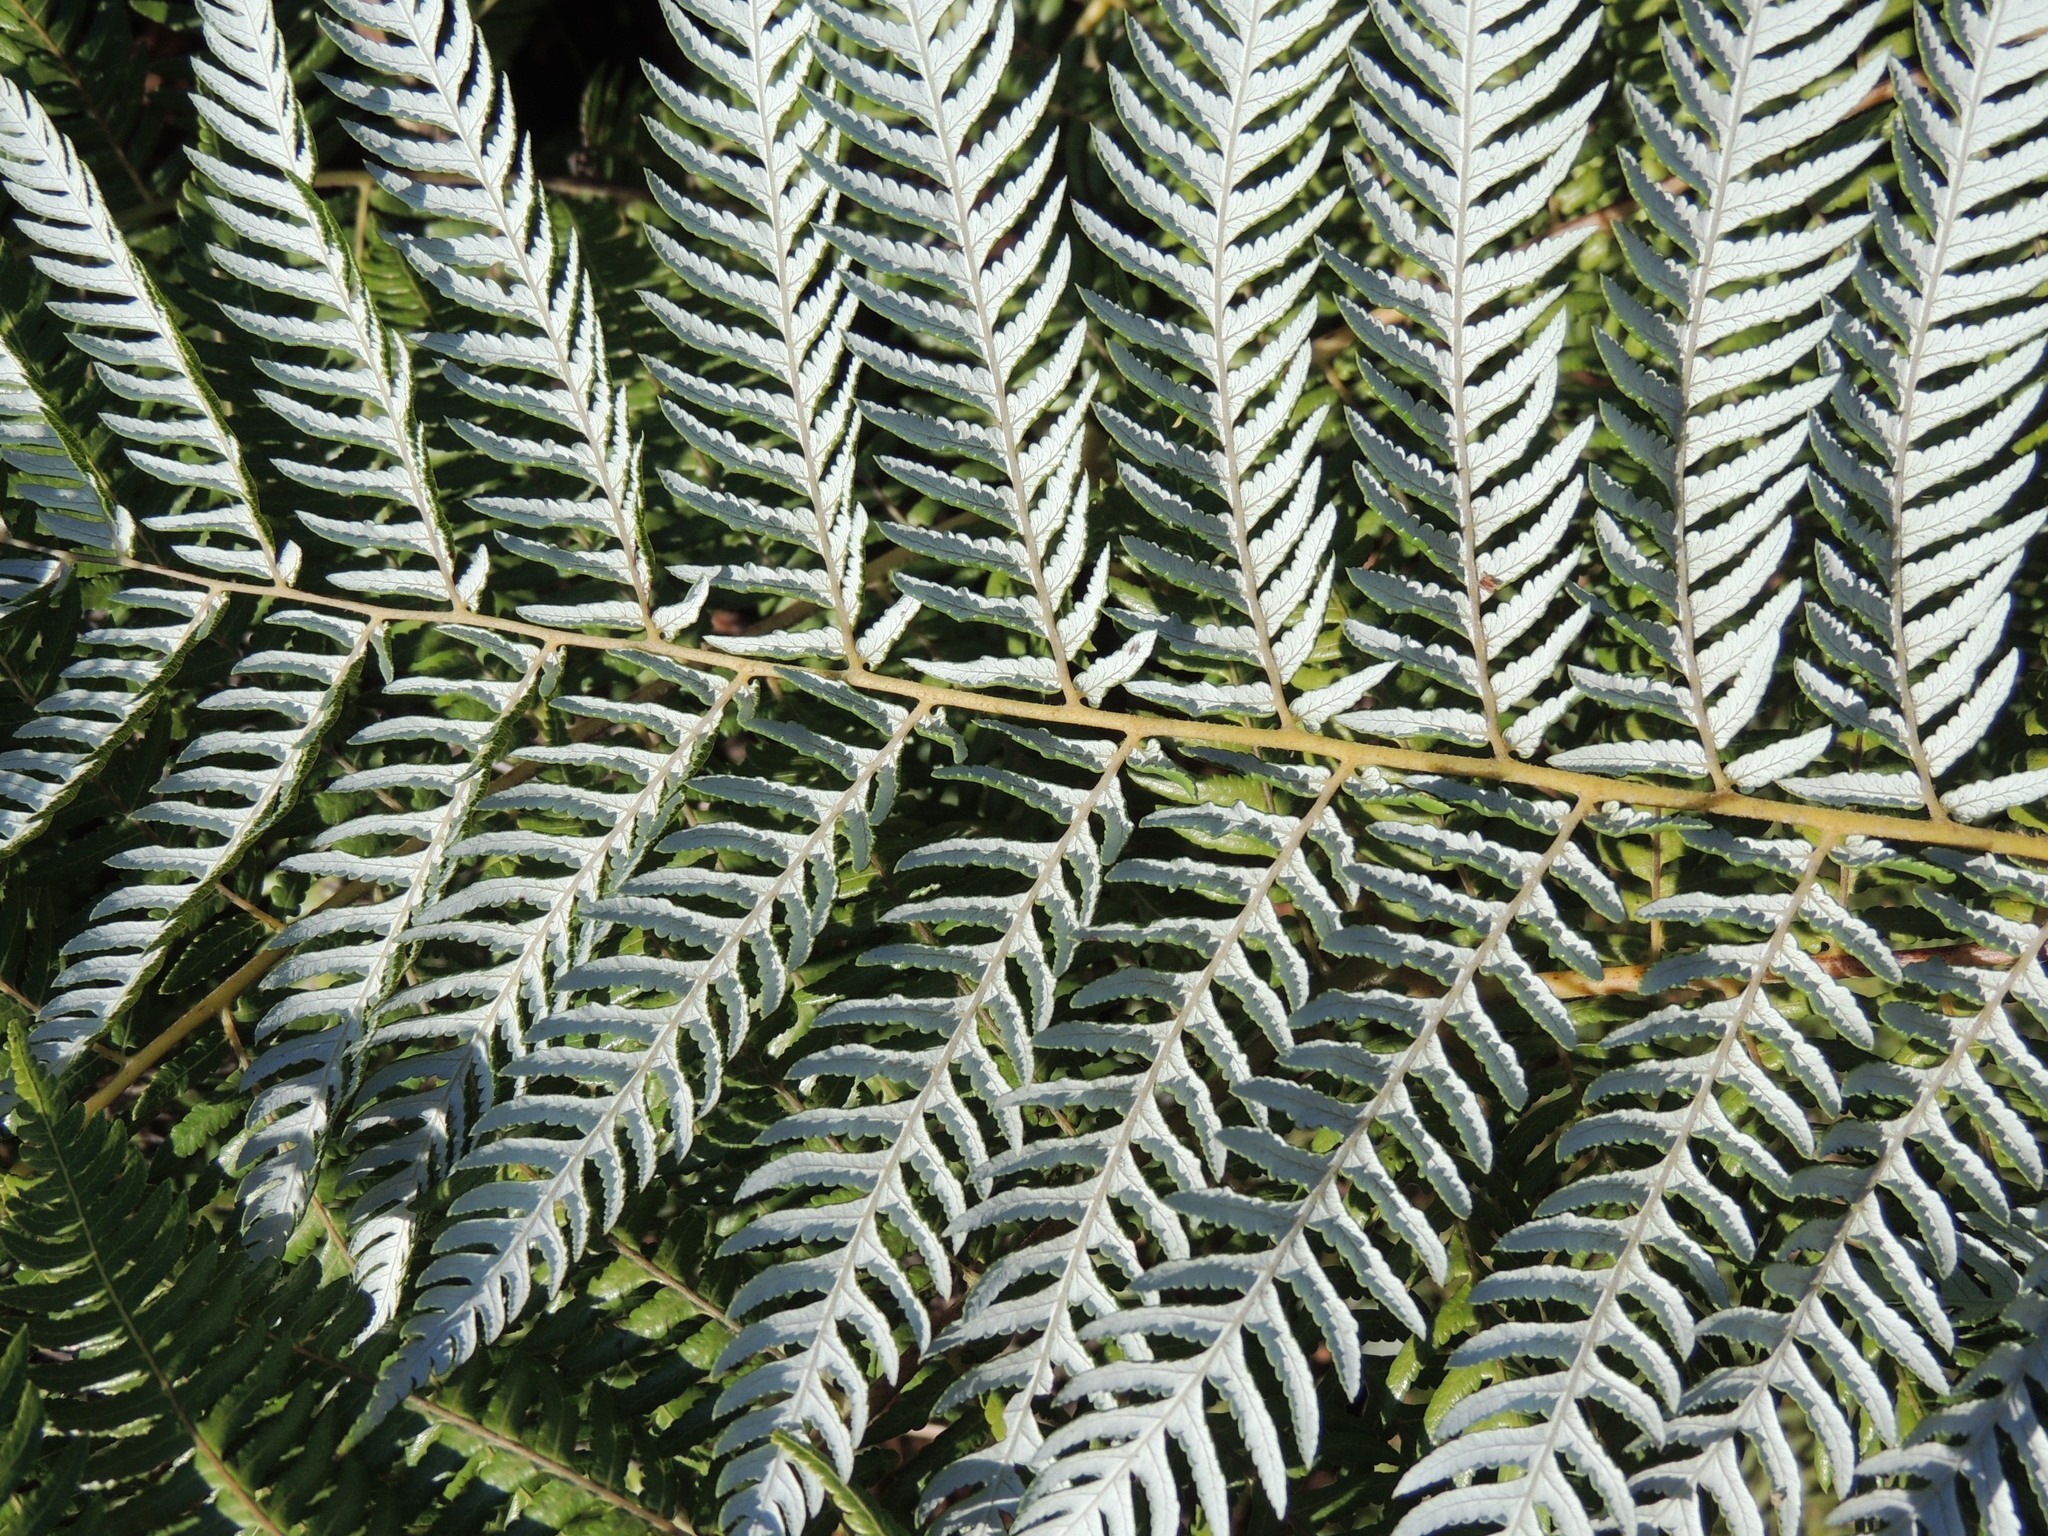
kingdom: Plantae
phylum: Tracheophyta
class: Polypodiopsida
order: Cyatheales
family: Cyatheaceae
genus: Alsophila
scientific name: Alsophila dealbata
